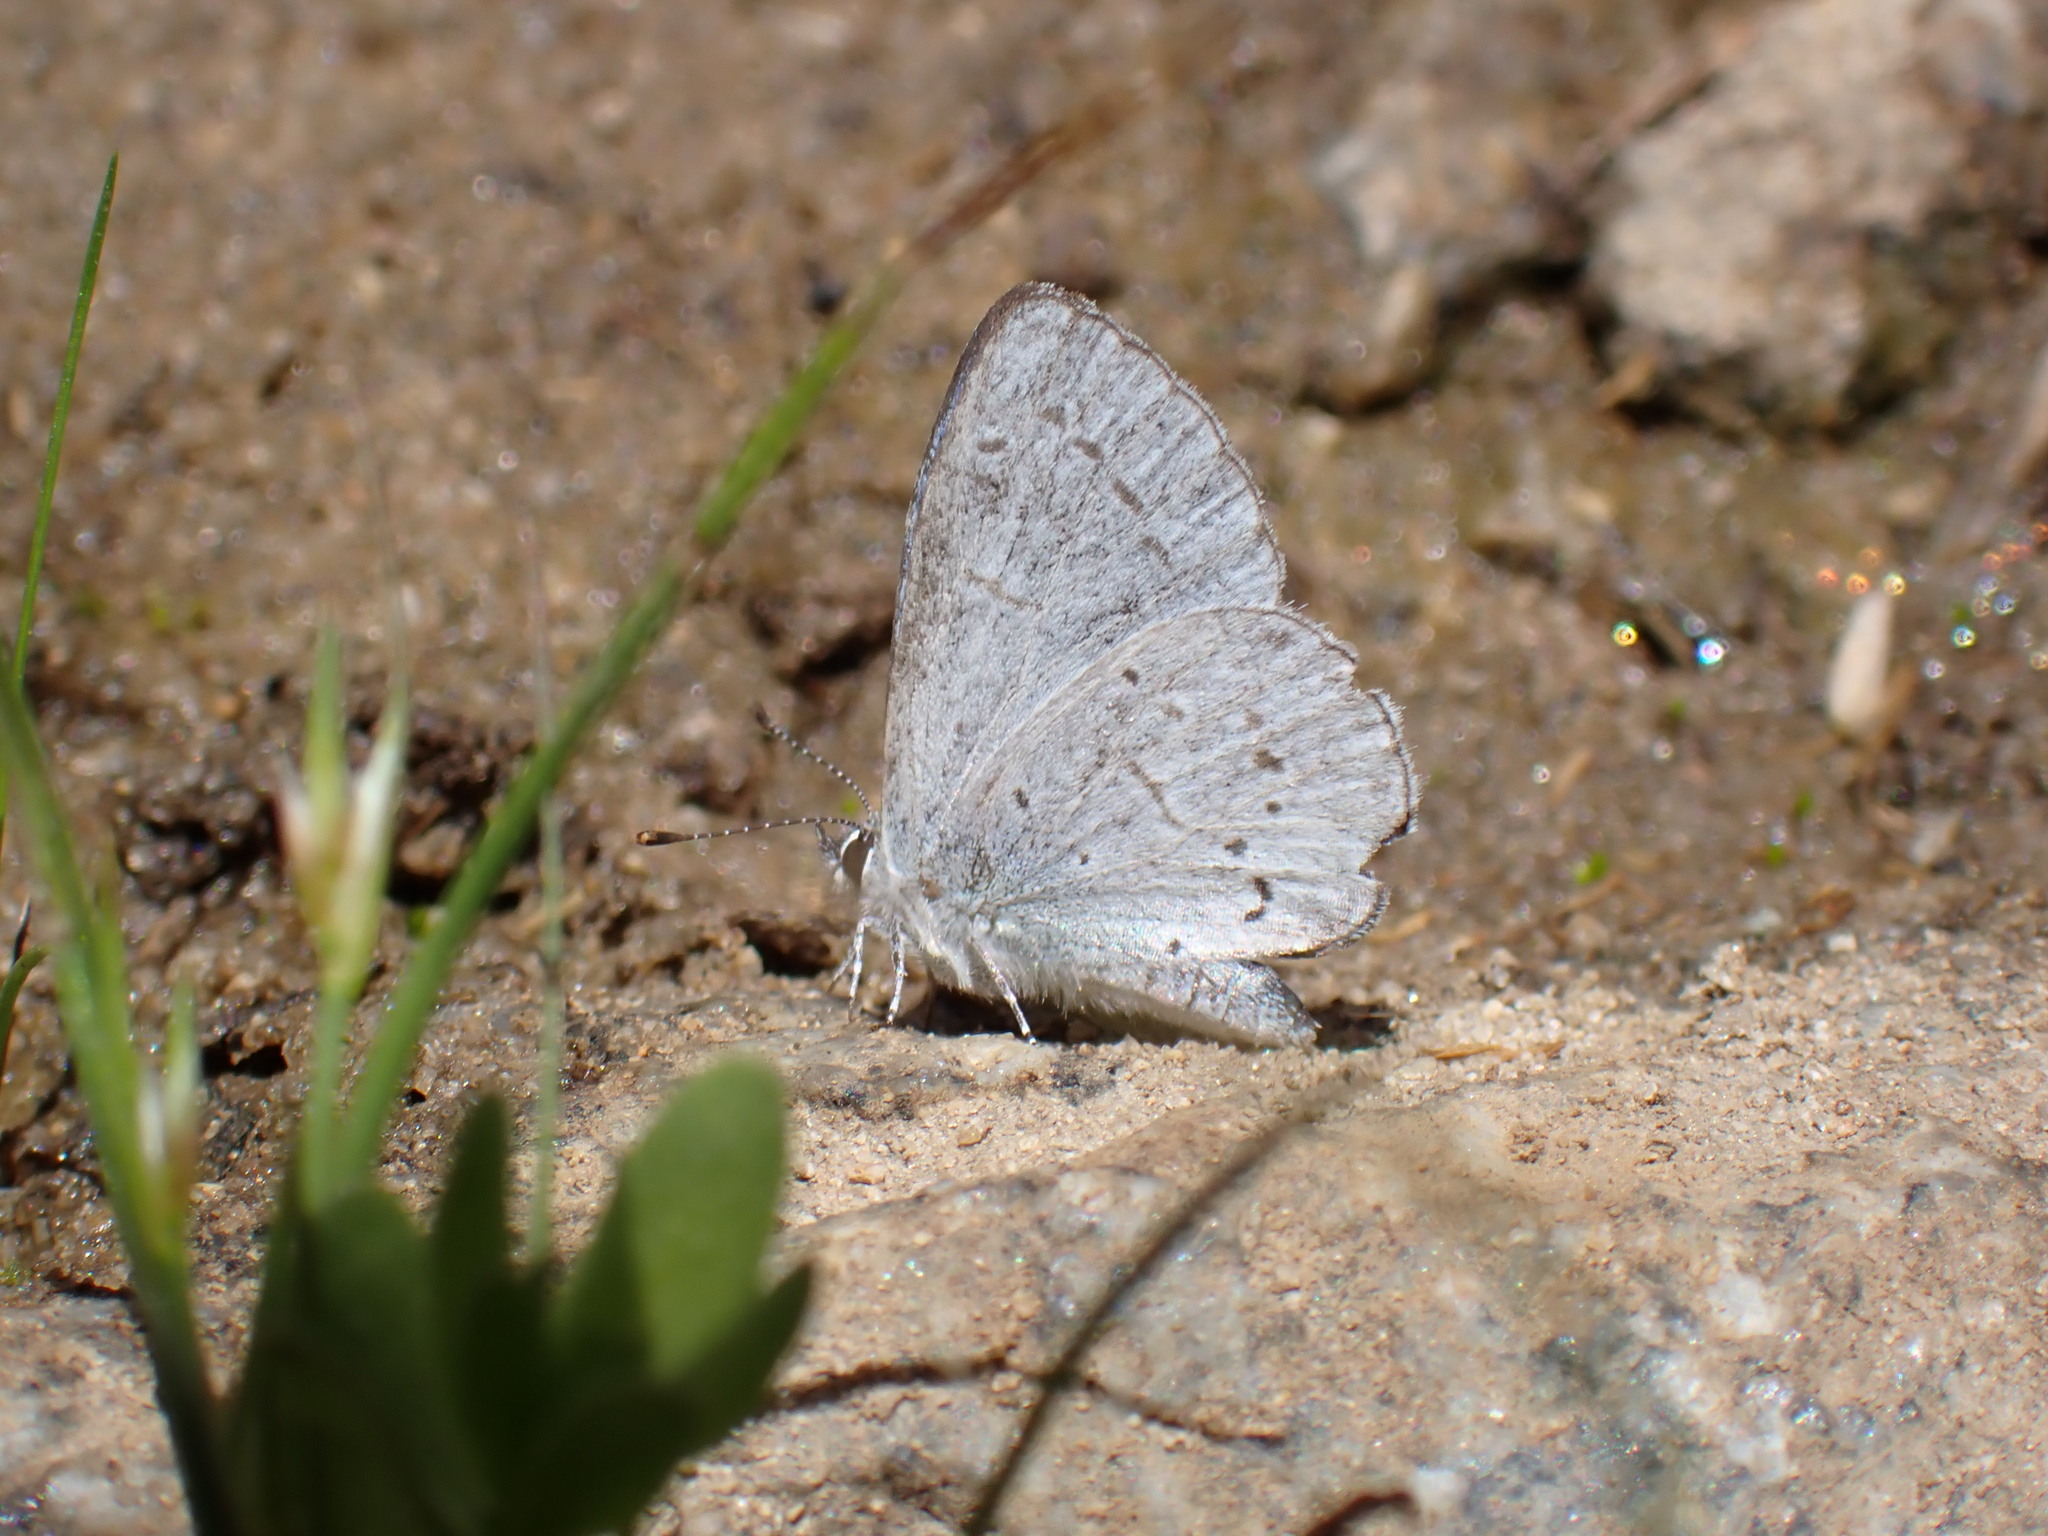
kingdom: Animalia
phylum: Arthropoda
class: Insecta
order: Lepidoptera
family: Lycaenidae
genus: Celastrina
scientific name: Celastrina ladon
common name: Spring azure
